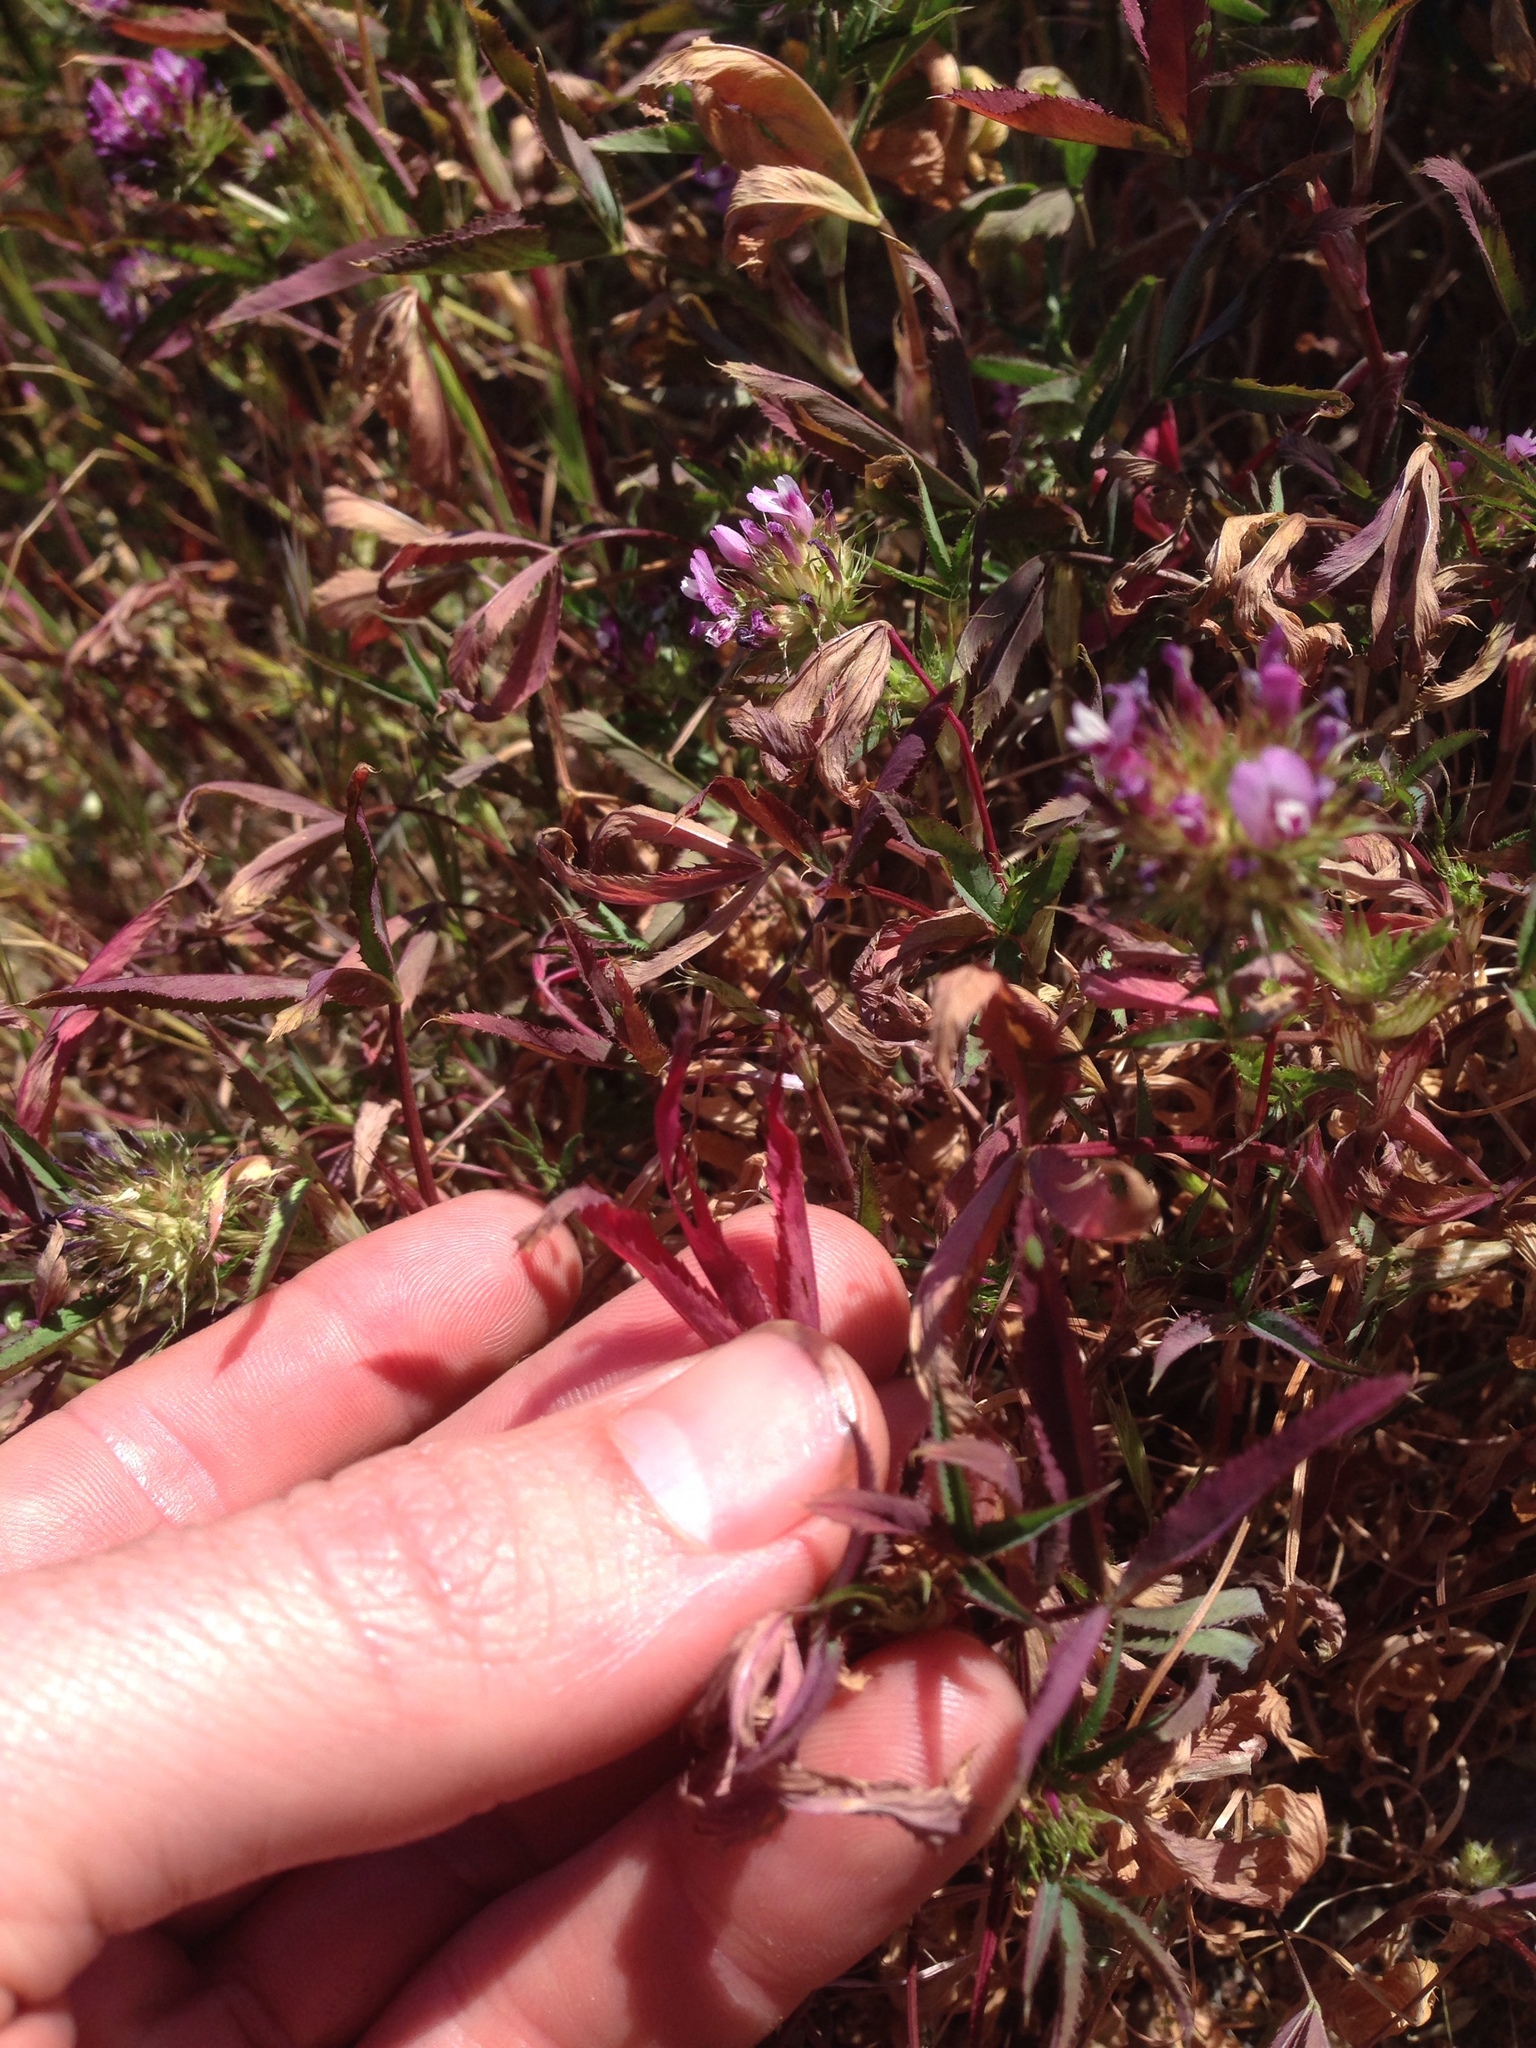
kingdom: Plantae
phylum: Tracheophyta
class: Magnoliopsida
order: Fabales
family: Fabaceae
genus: Trifolium
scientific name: Trifolium willdenovii
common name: Tomcat clover
